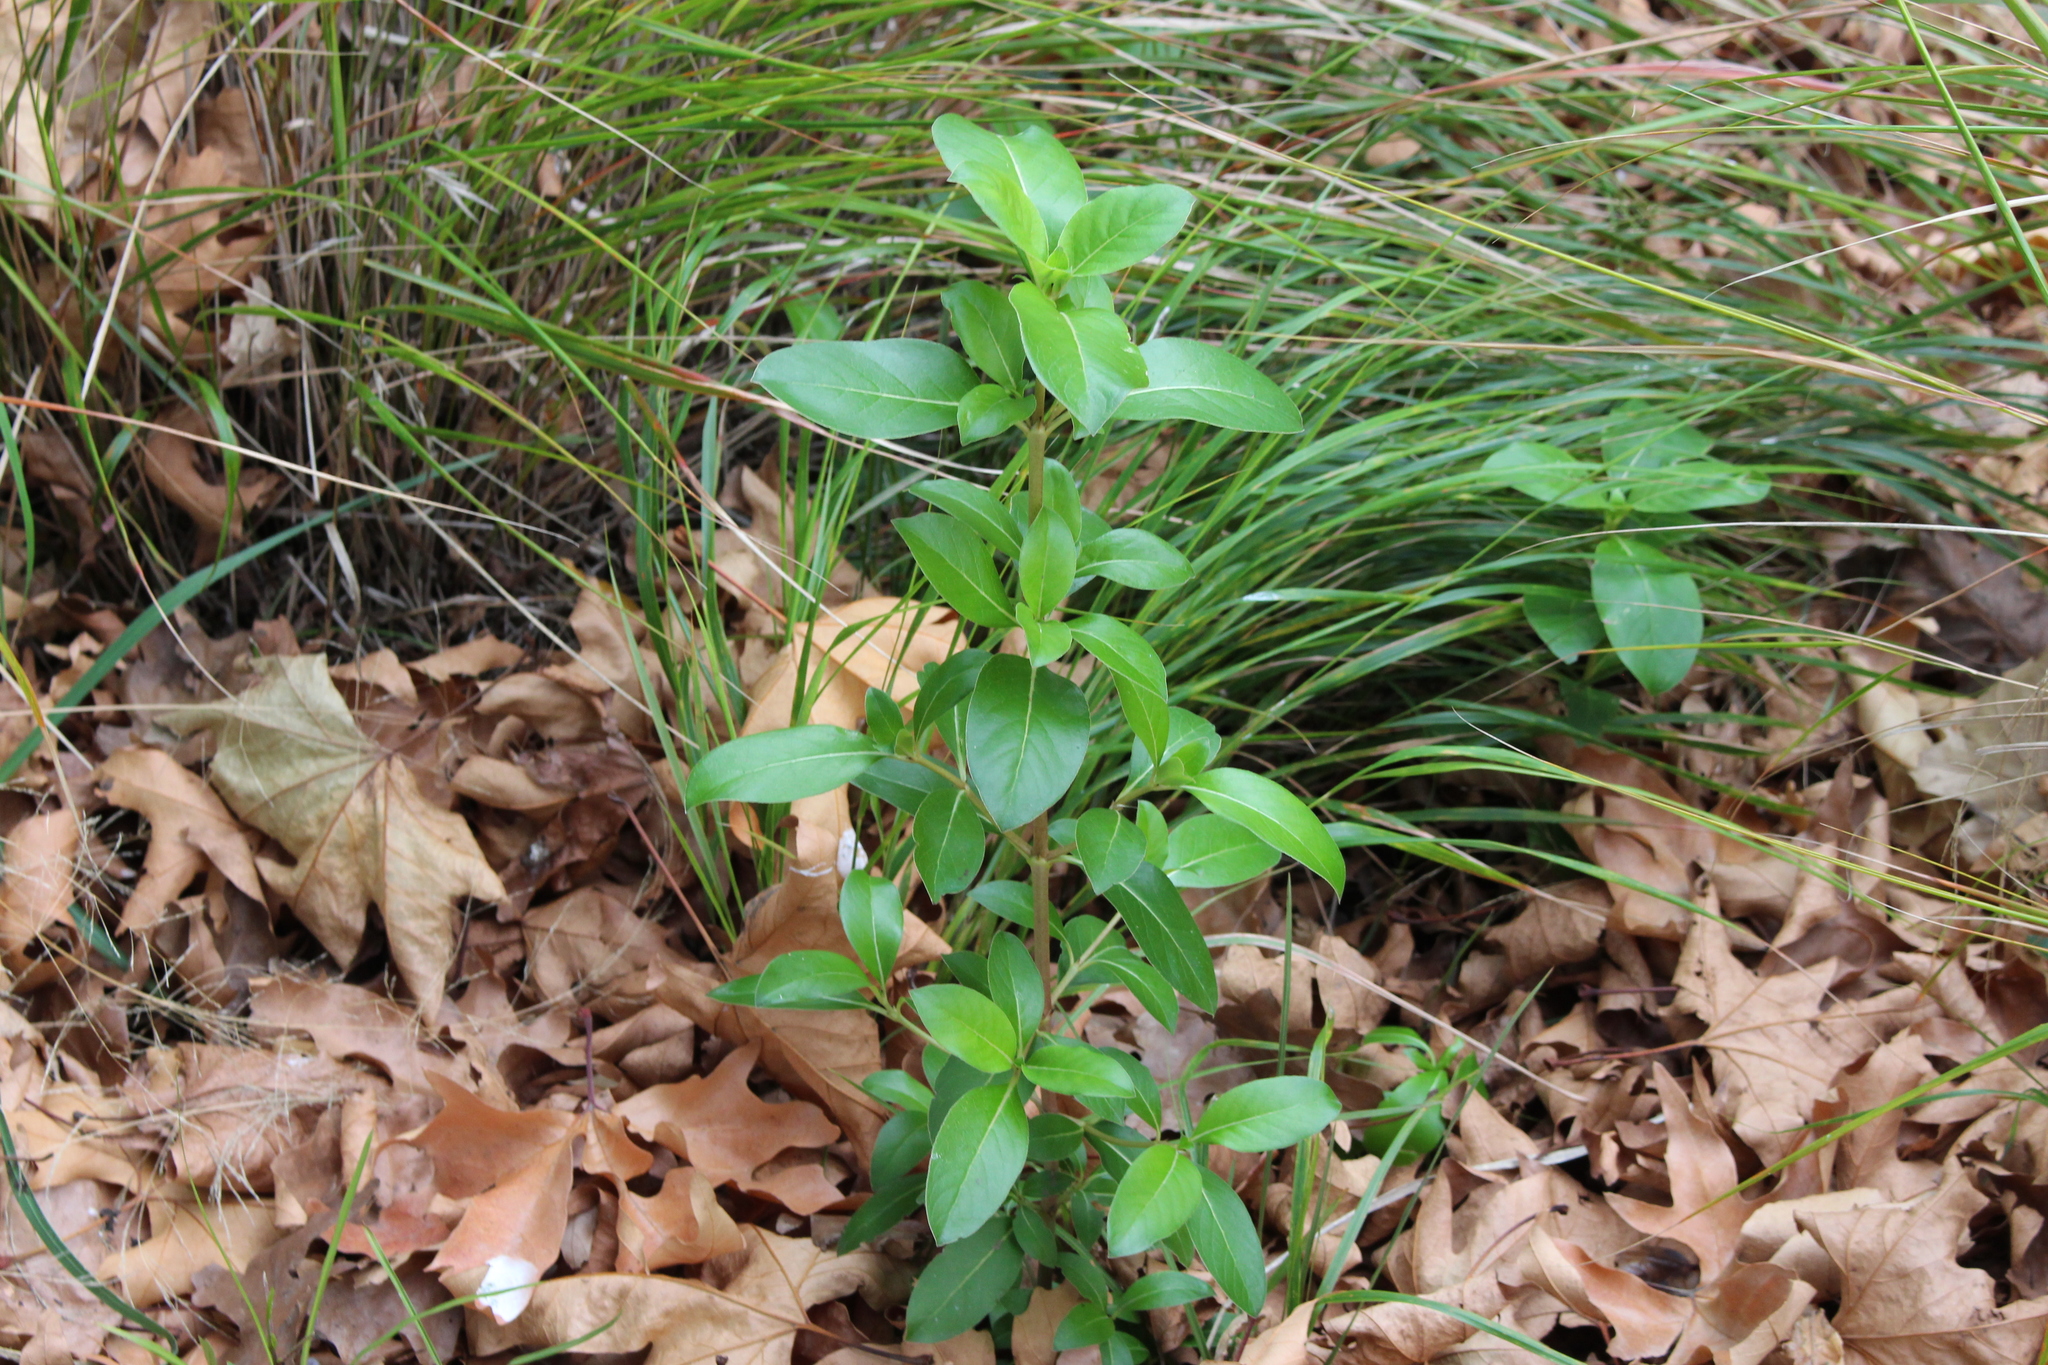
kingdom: Plantae
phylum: Tracheophyta
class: Magnoliopsida
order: Gentianales
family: Rubiaceae
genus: Coprosma
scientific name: Coprosma robusta
